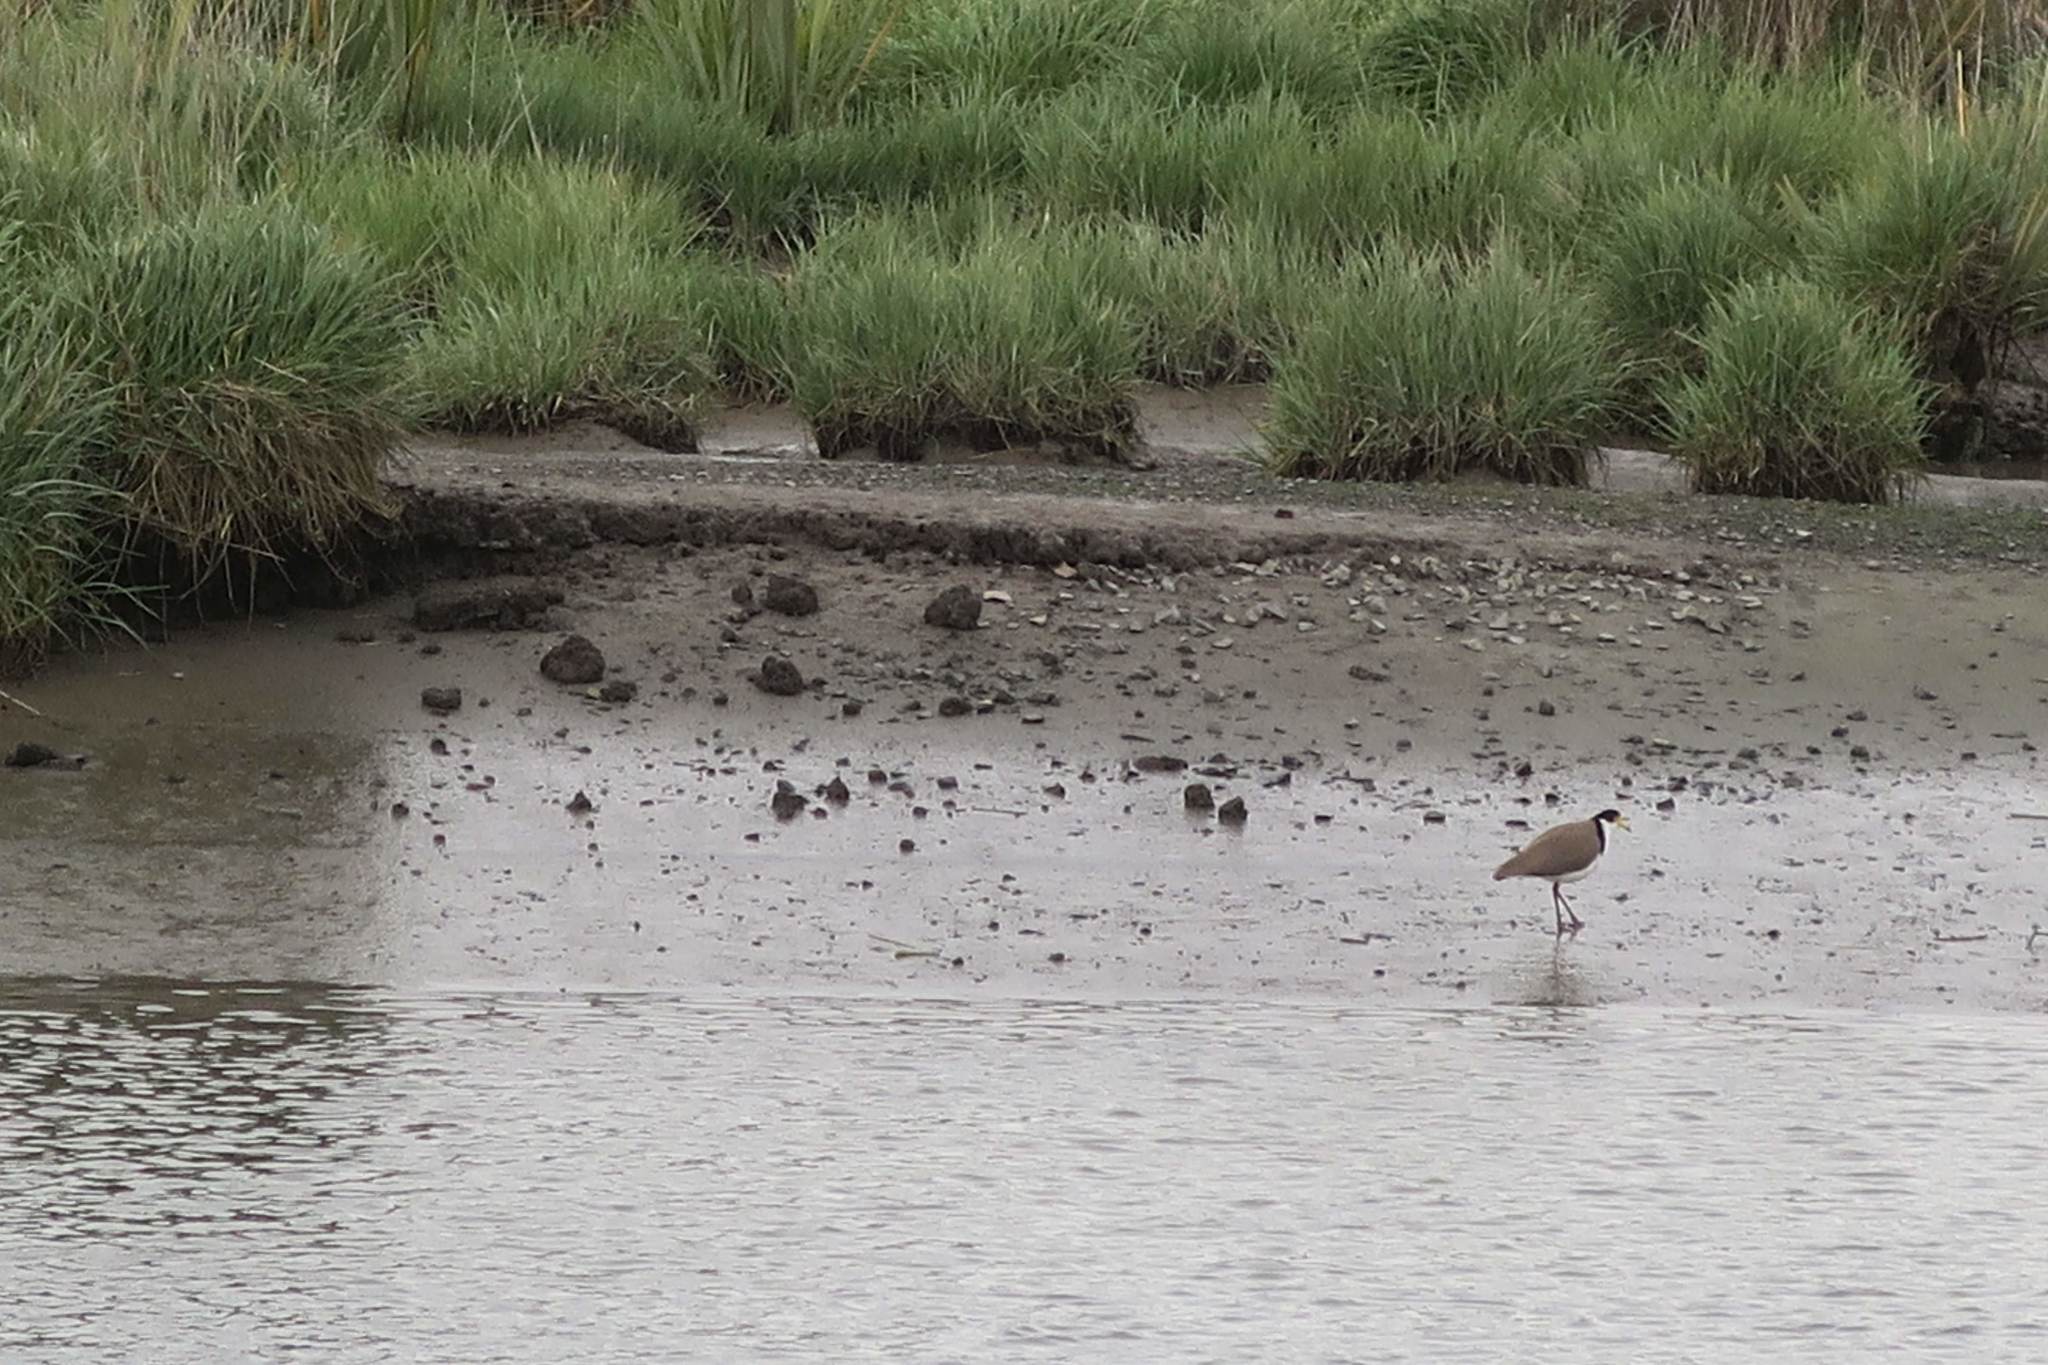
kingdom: Animalia
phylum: Chordata
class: Aves
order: Charadriiformes
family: Charadriidae
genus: Vanellus
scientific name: Vanellus miles
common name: Masked lapwing
